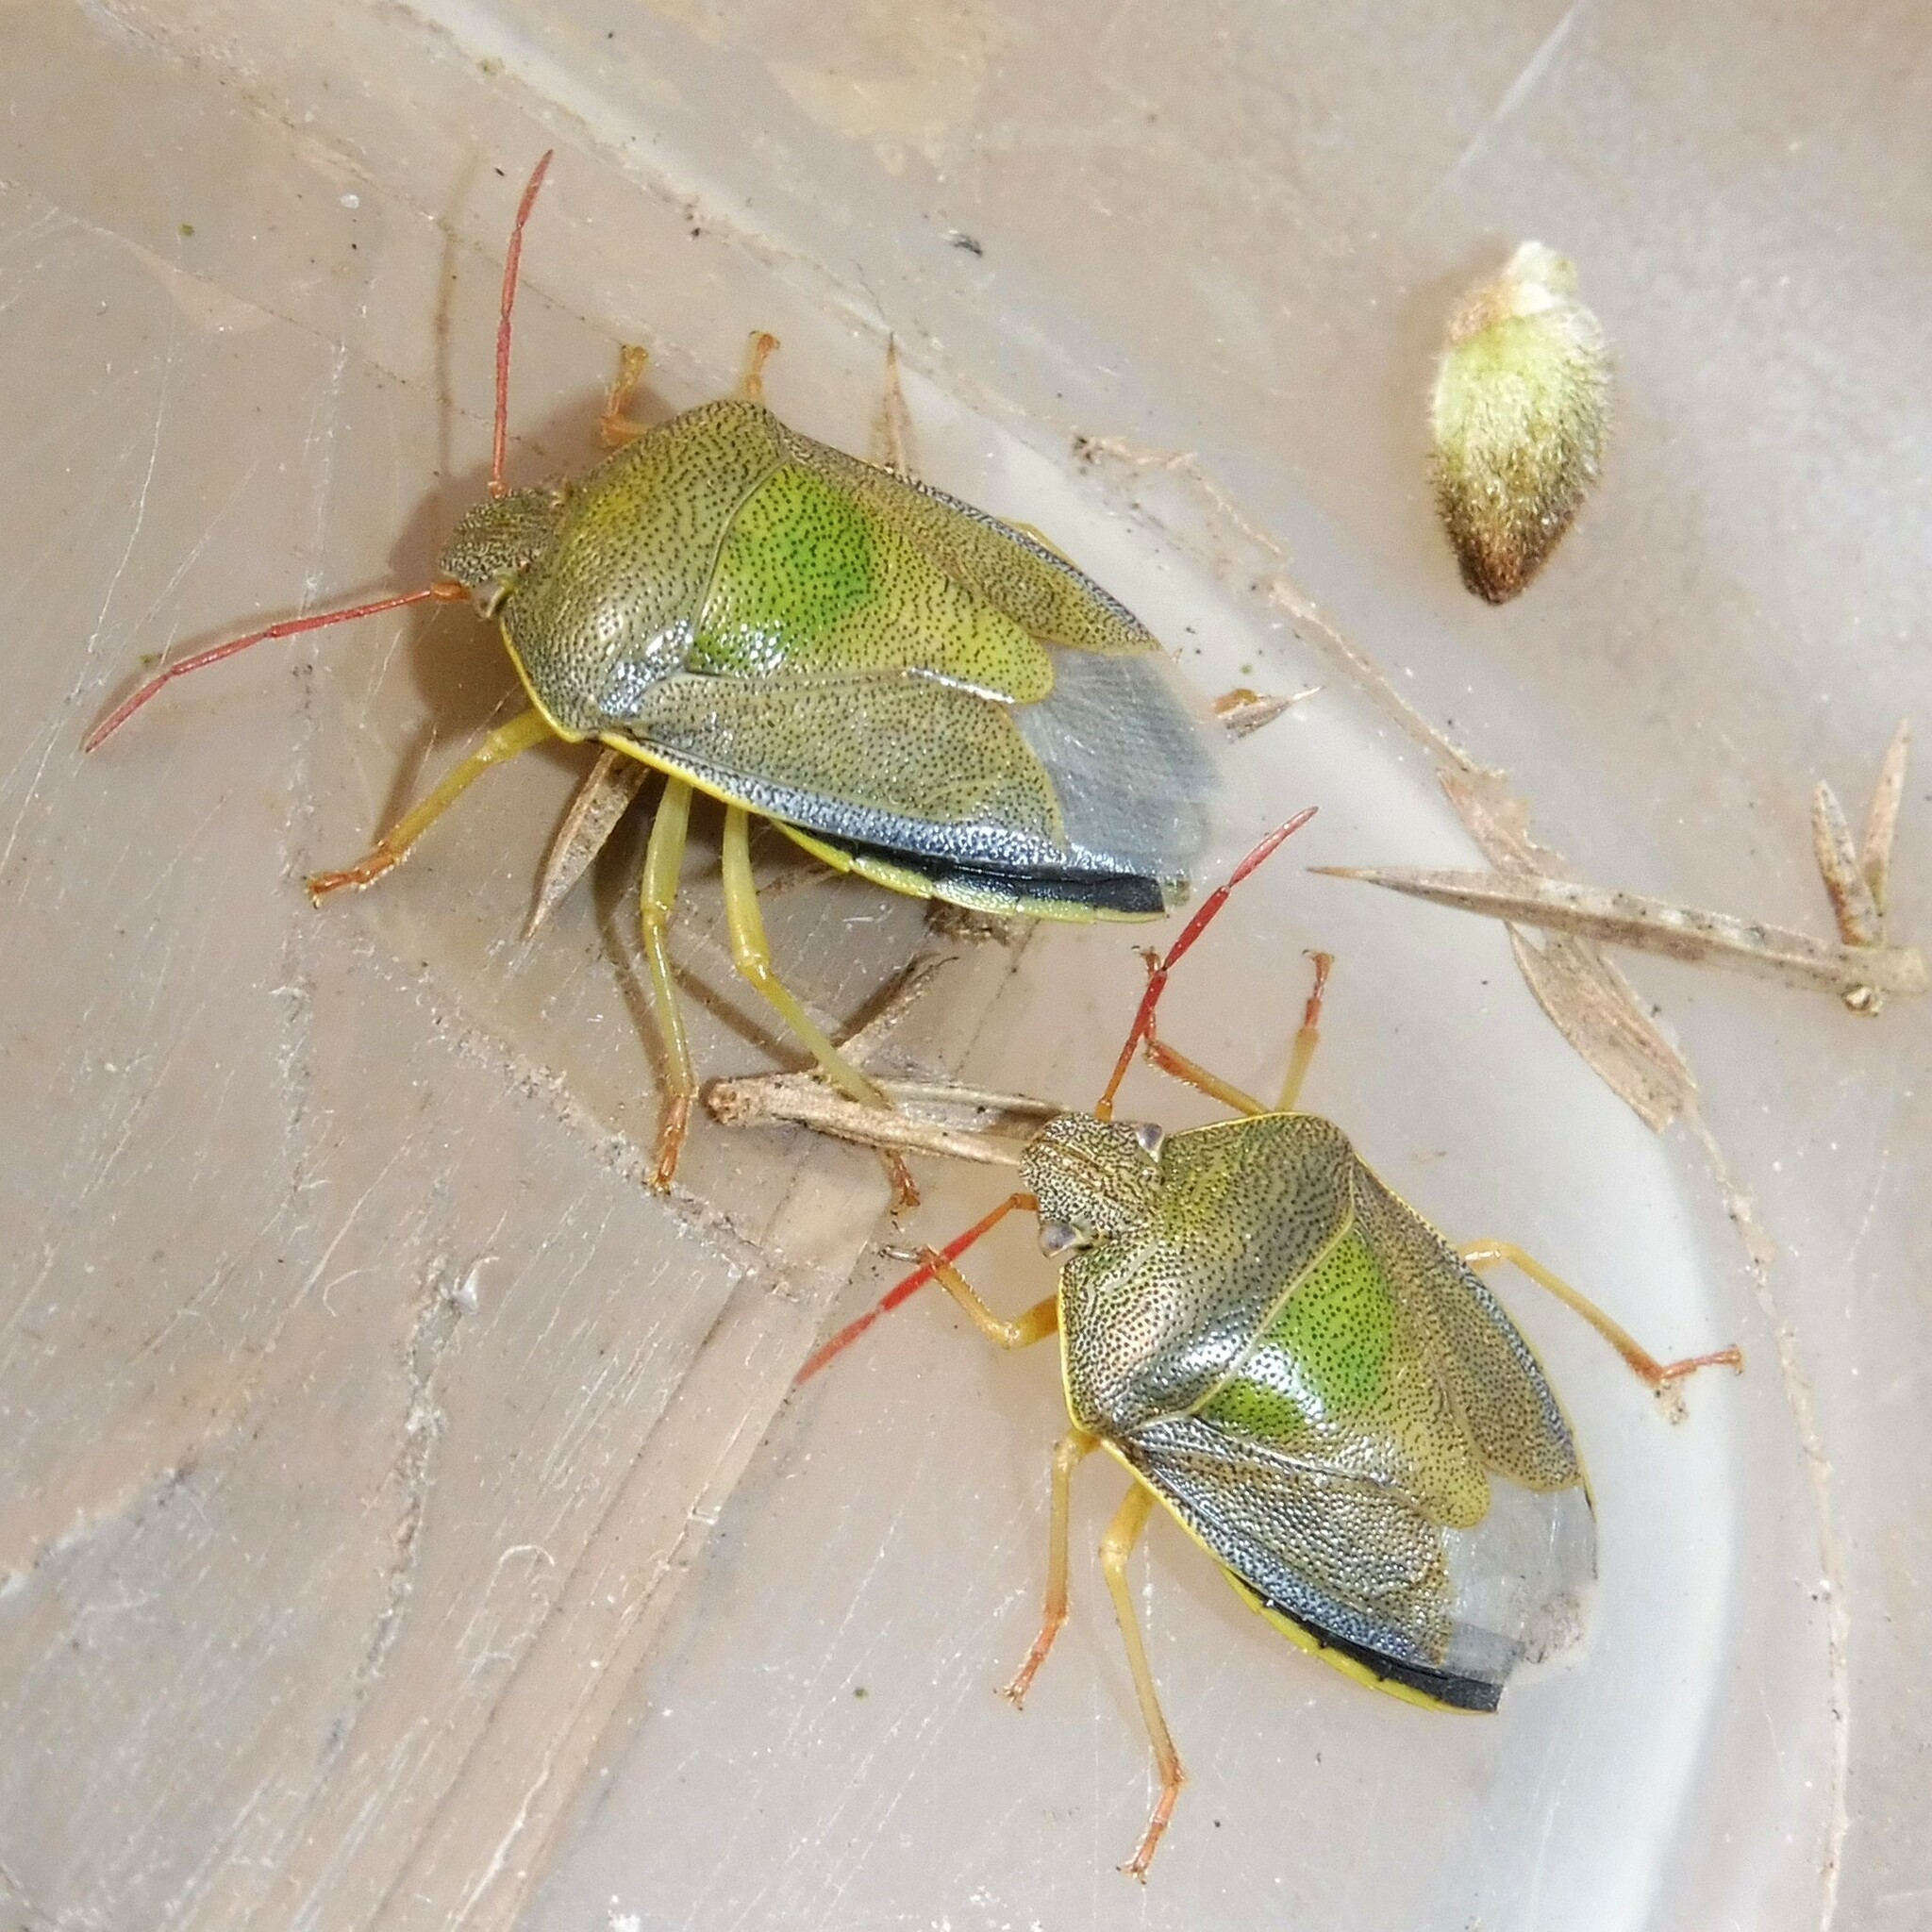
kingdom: Animalia
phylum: Arthropoda
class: Insecta
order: Hemiptera
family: Pentatomidae
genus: Piezodorus
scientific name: Piezodorus lituratus
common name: Stink bug
